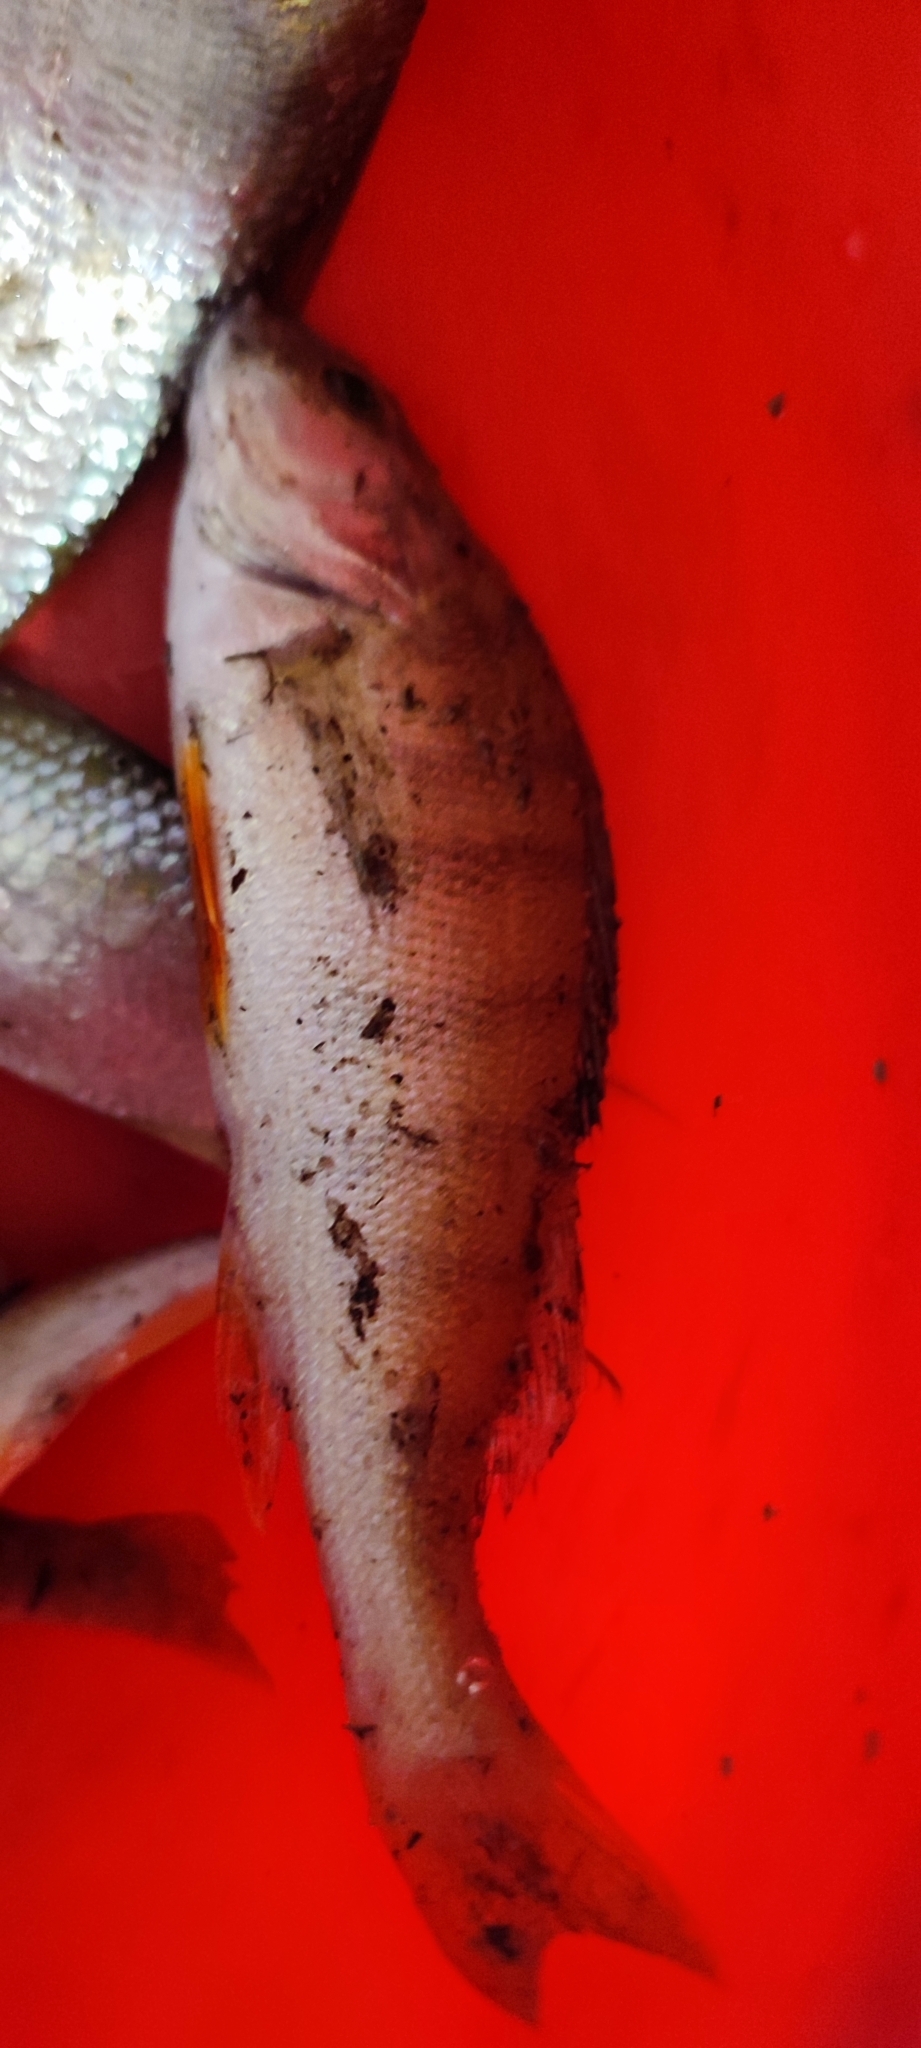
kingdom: Animalia
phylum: Chordata
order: Perciformes
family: Percidae
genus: Perca
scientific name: Perca fluviatilis
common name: Perch
